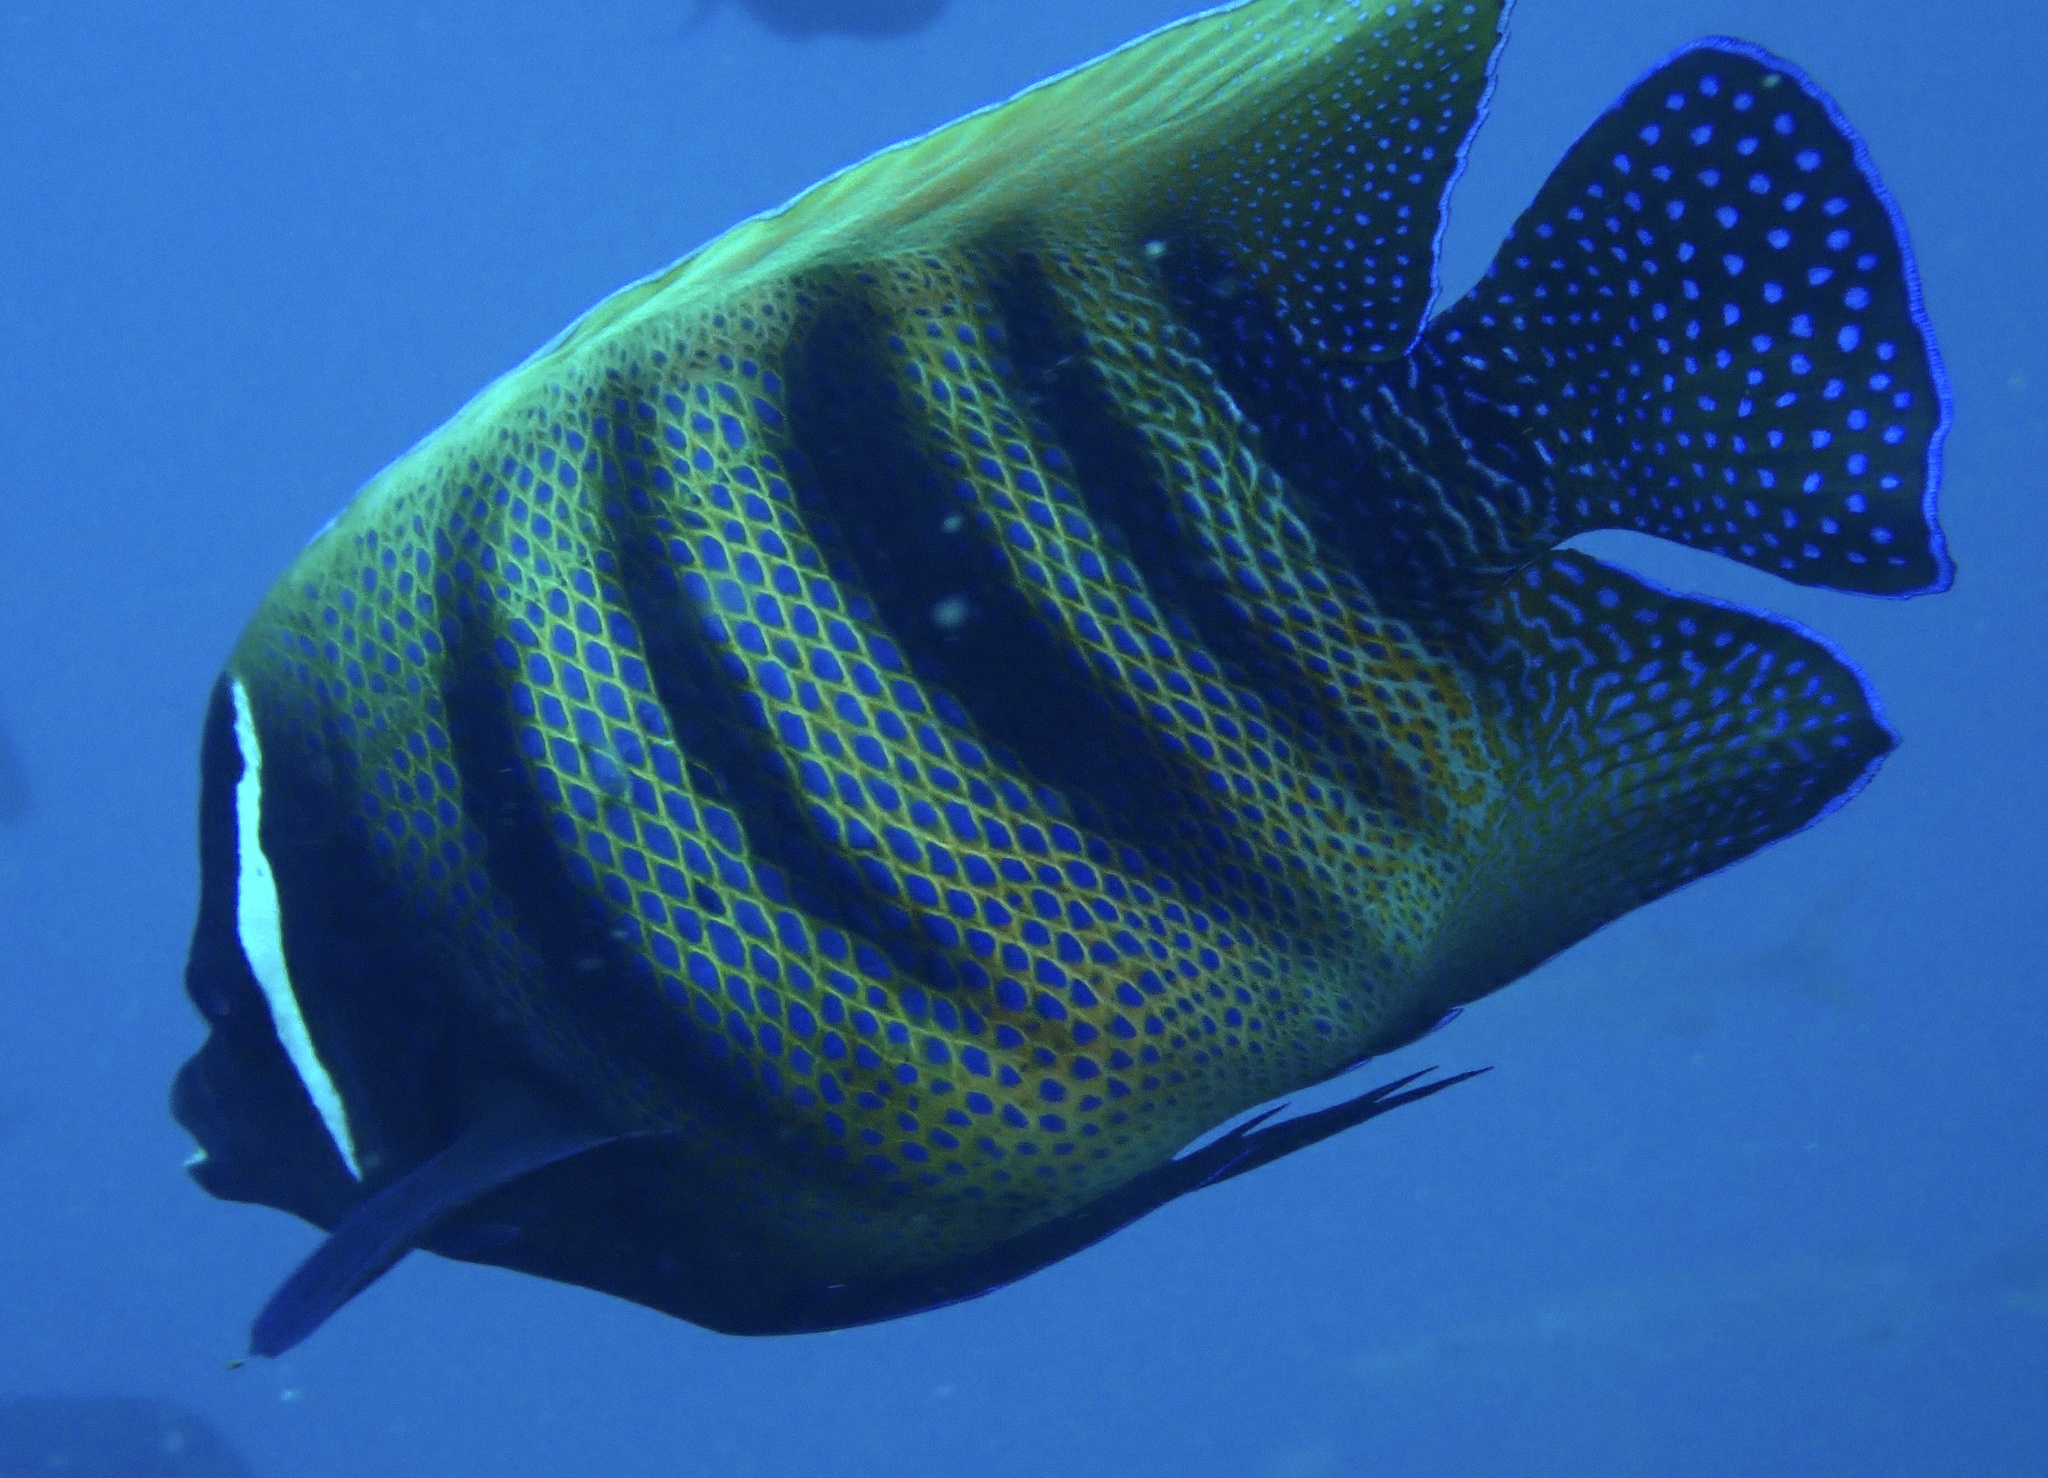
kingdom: Animalia
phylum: Chordata
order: Perciformes
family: Pomacanthidae
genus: Pomacanthus
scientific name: Pomacanthus sexstriatus
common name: Six-banded angelfish
